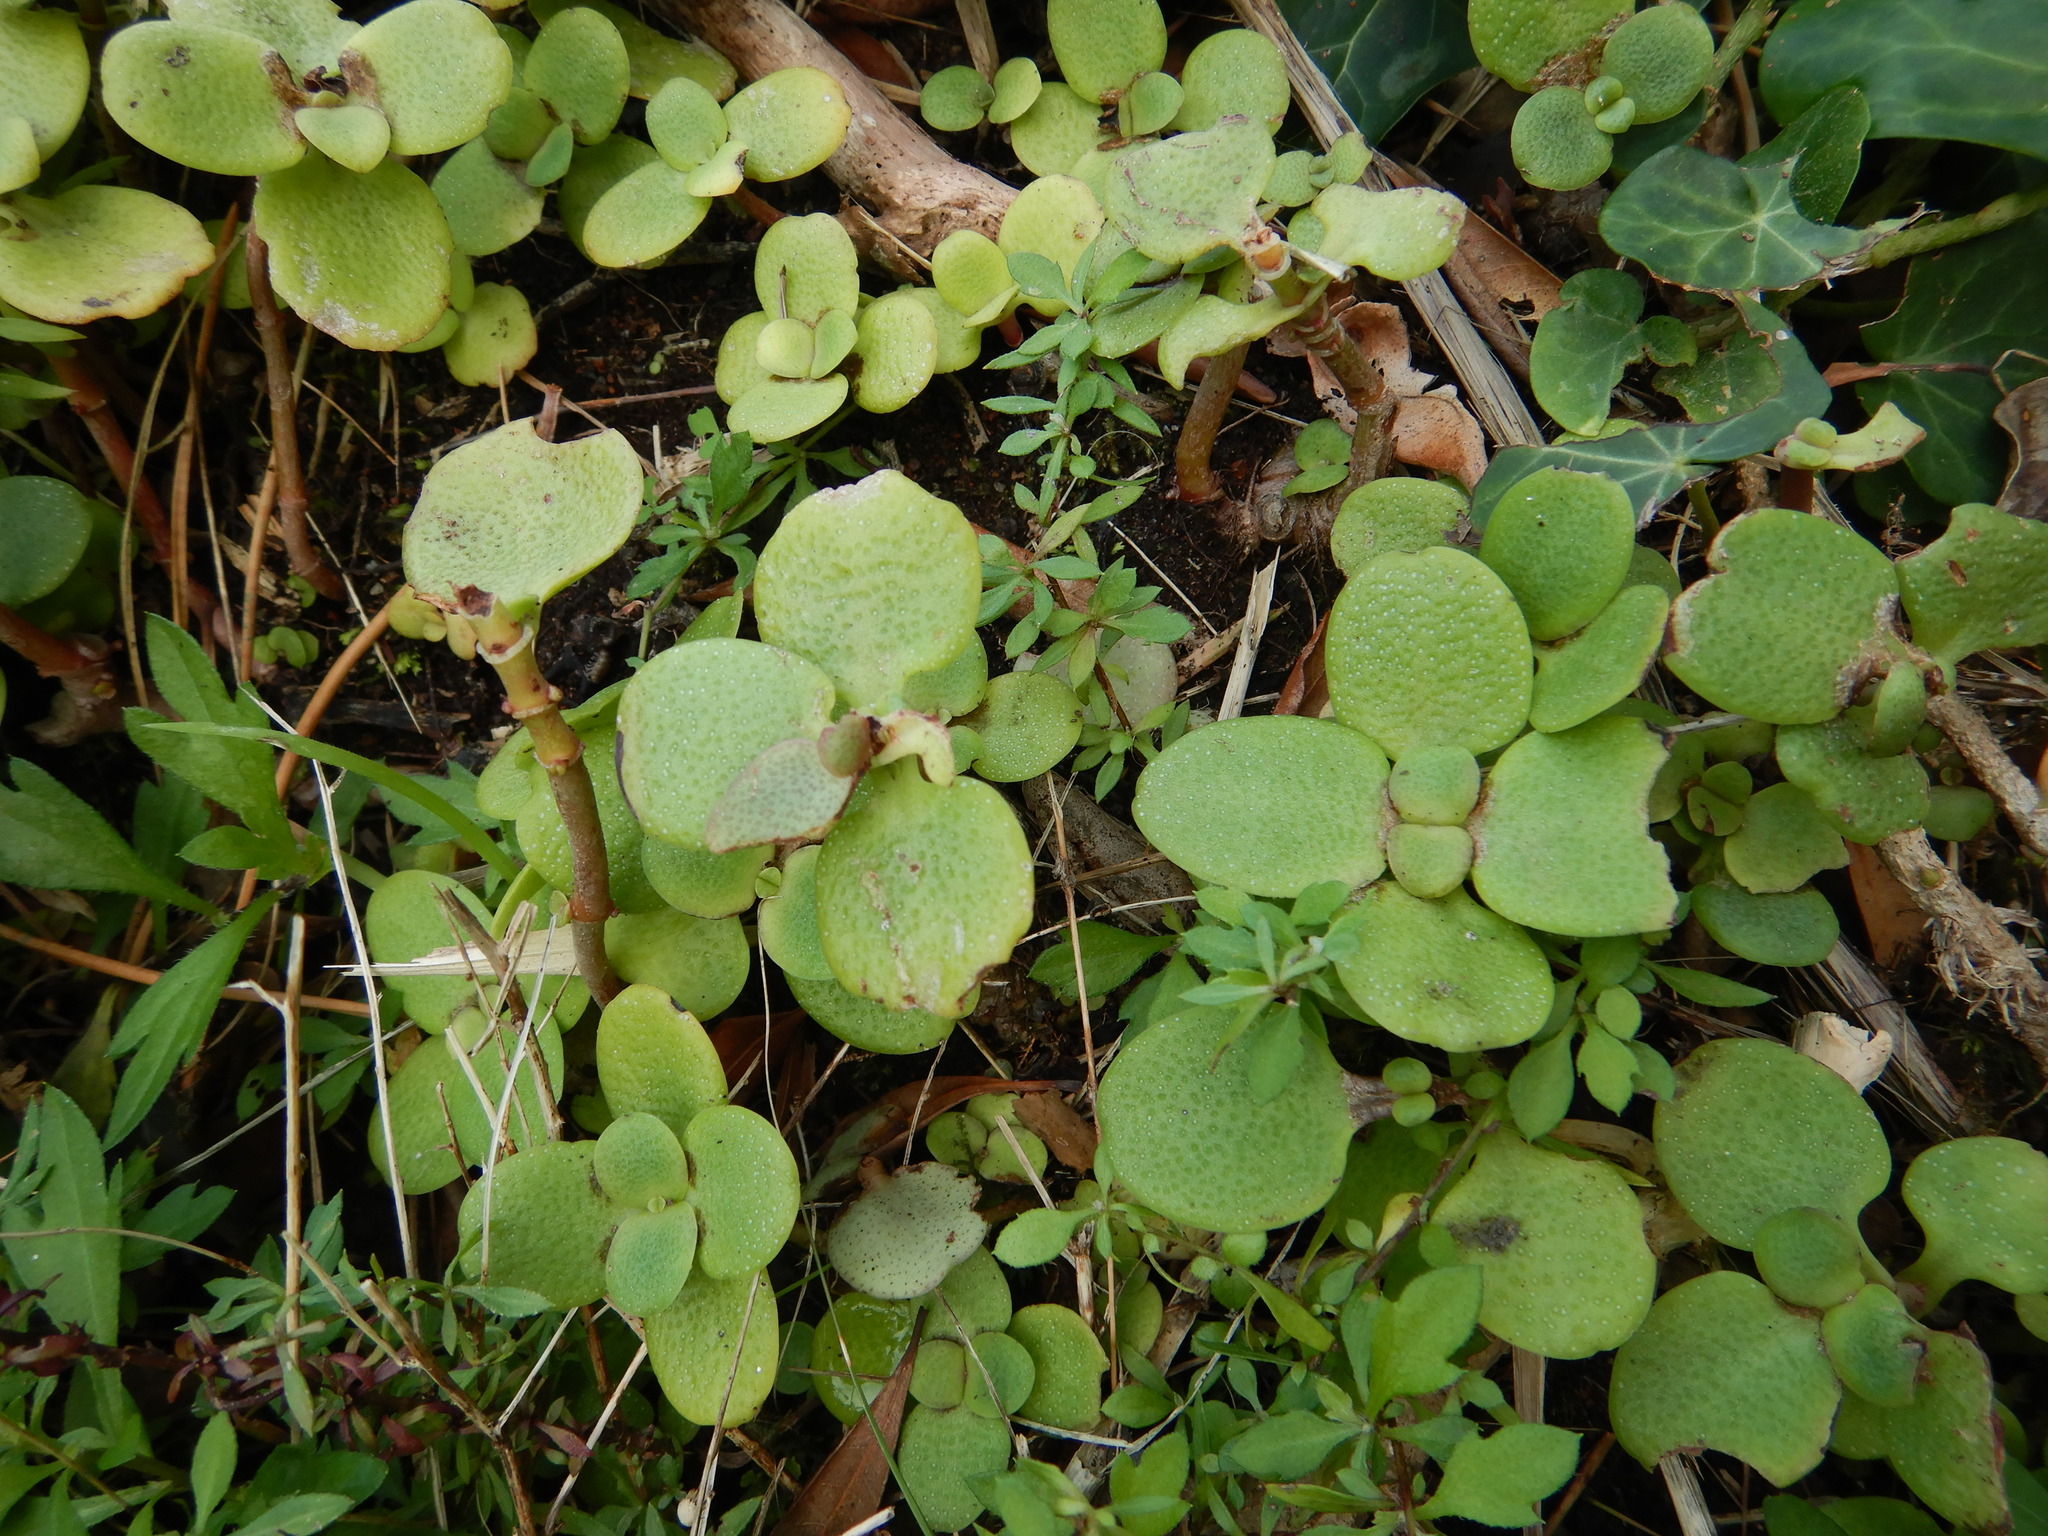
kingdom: Plantae
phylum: Tracheophyta
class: Magnoliopsida
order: Saxifragales
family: Crassulaceae
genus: Crassula
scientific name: Crassula multicava
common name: Cape province pygmyweed
